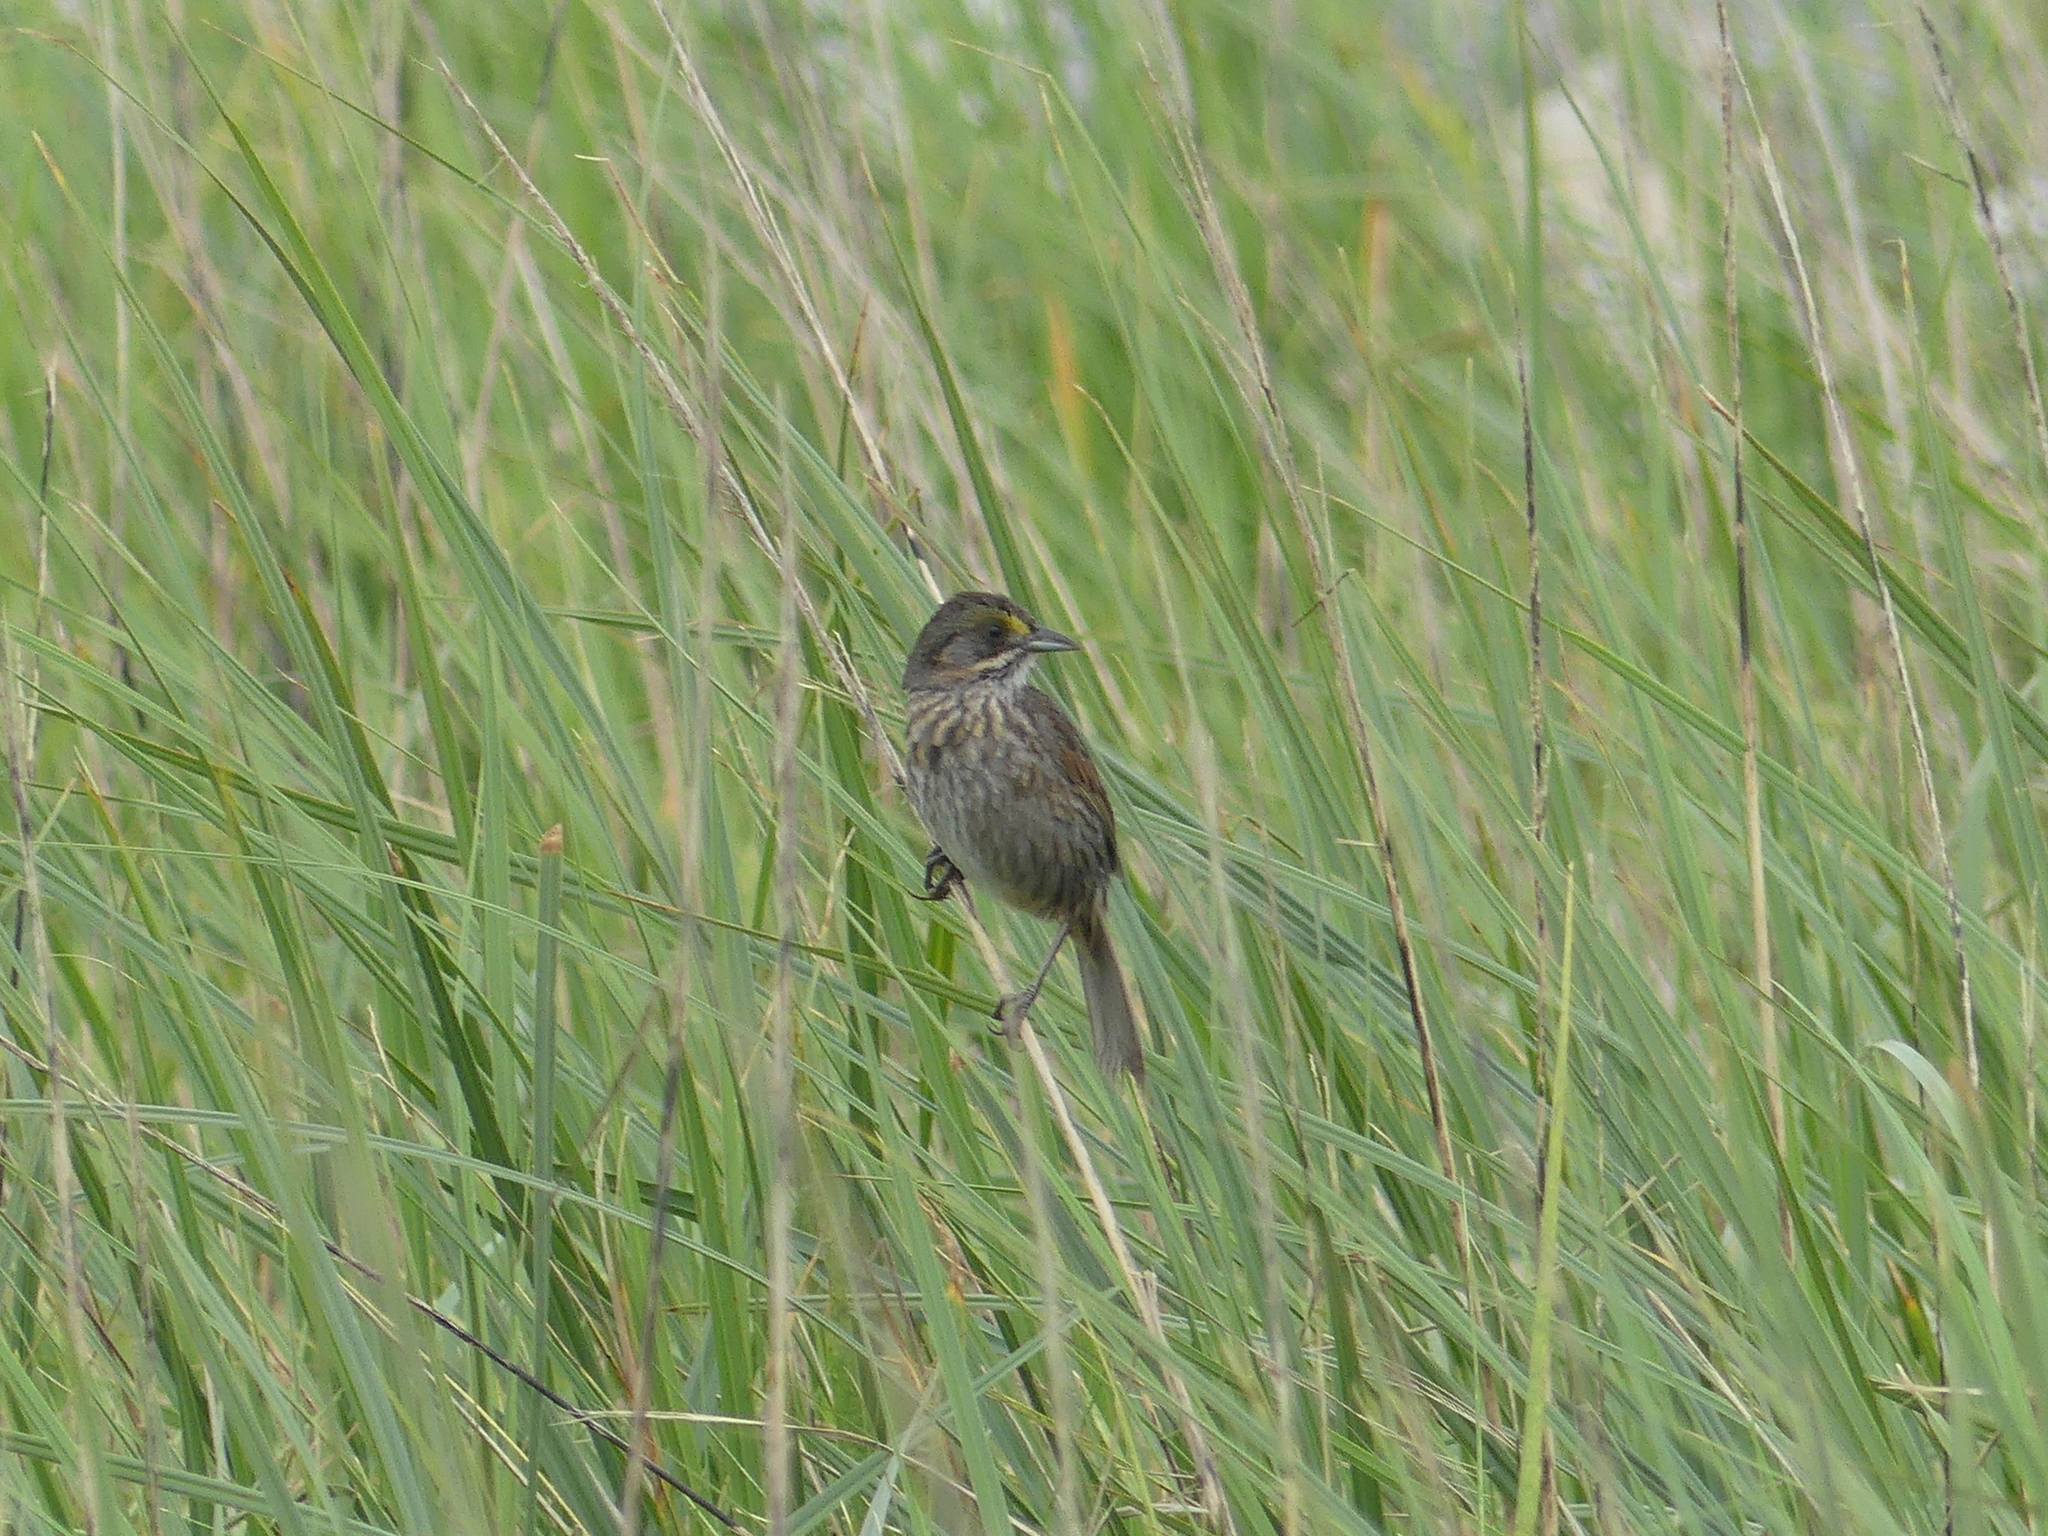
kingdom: Animalia
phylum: Chordata
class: Aves
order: Passeriformes
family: Passerellidae
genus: Ammospiza
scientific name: Ammospiza maritima
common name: Seaside sparrow
